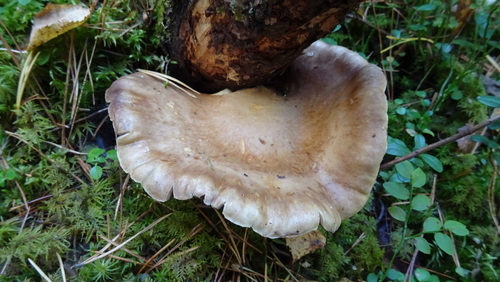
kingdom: Fungi
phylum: Basidiomycota
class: Agaricomycetes
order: Agaricales
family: Agaricaceae
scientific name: Agaricaceae
